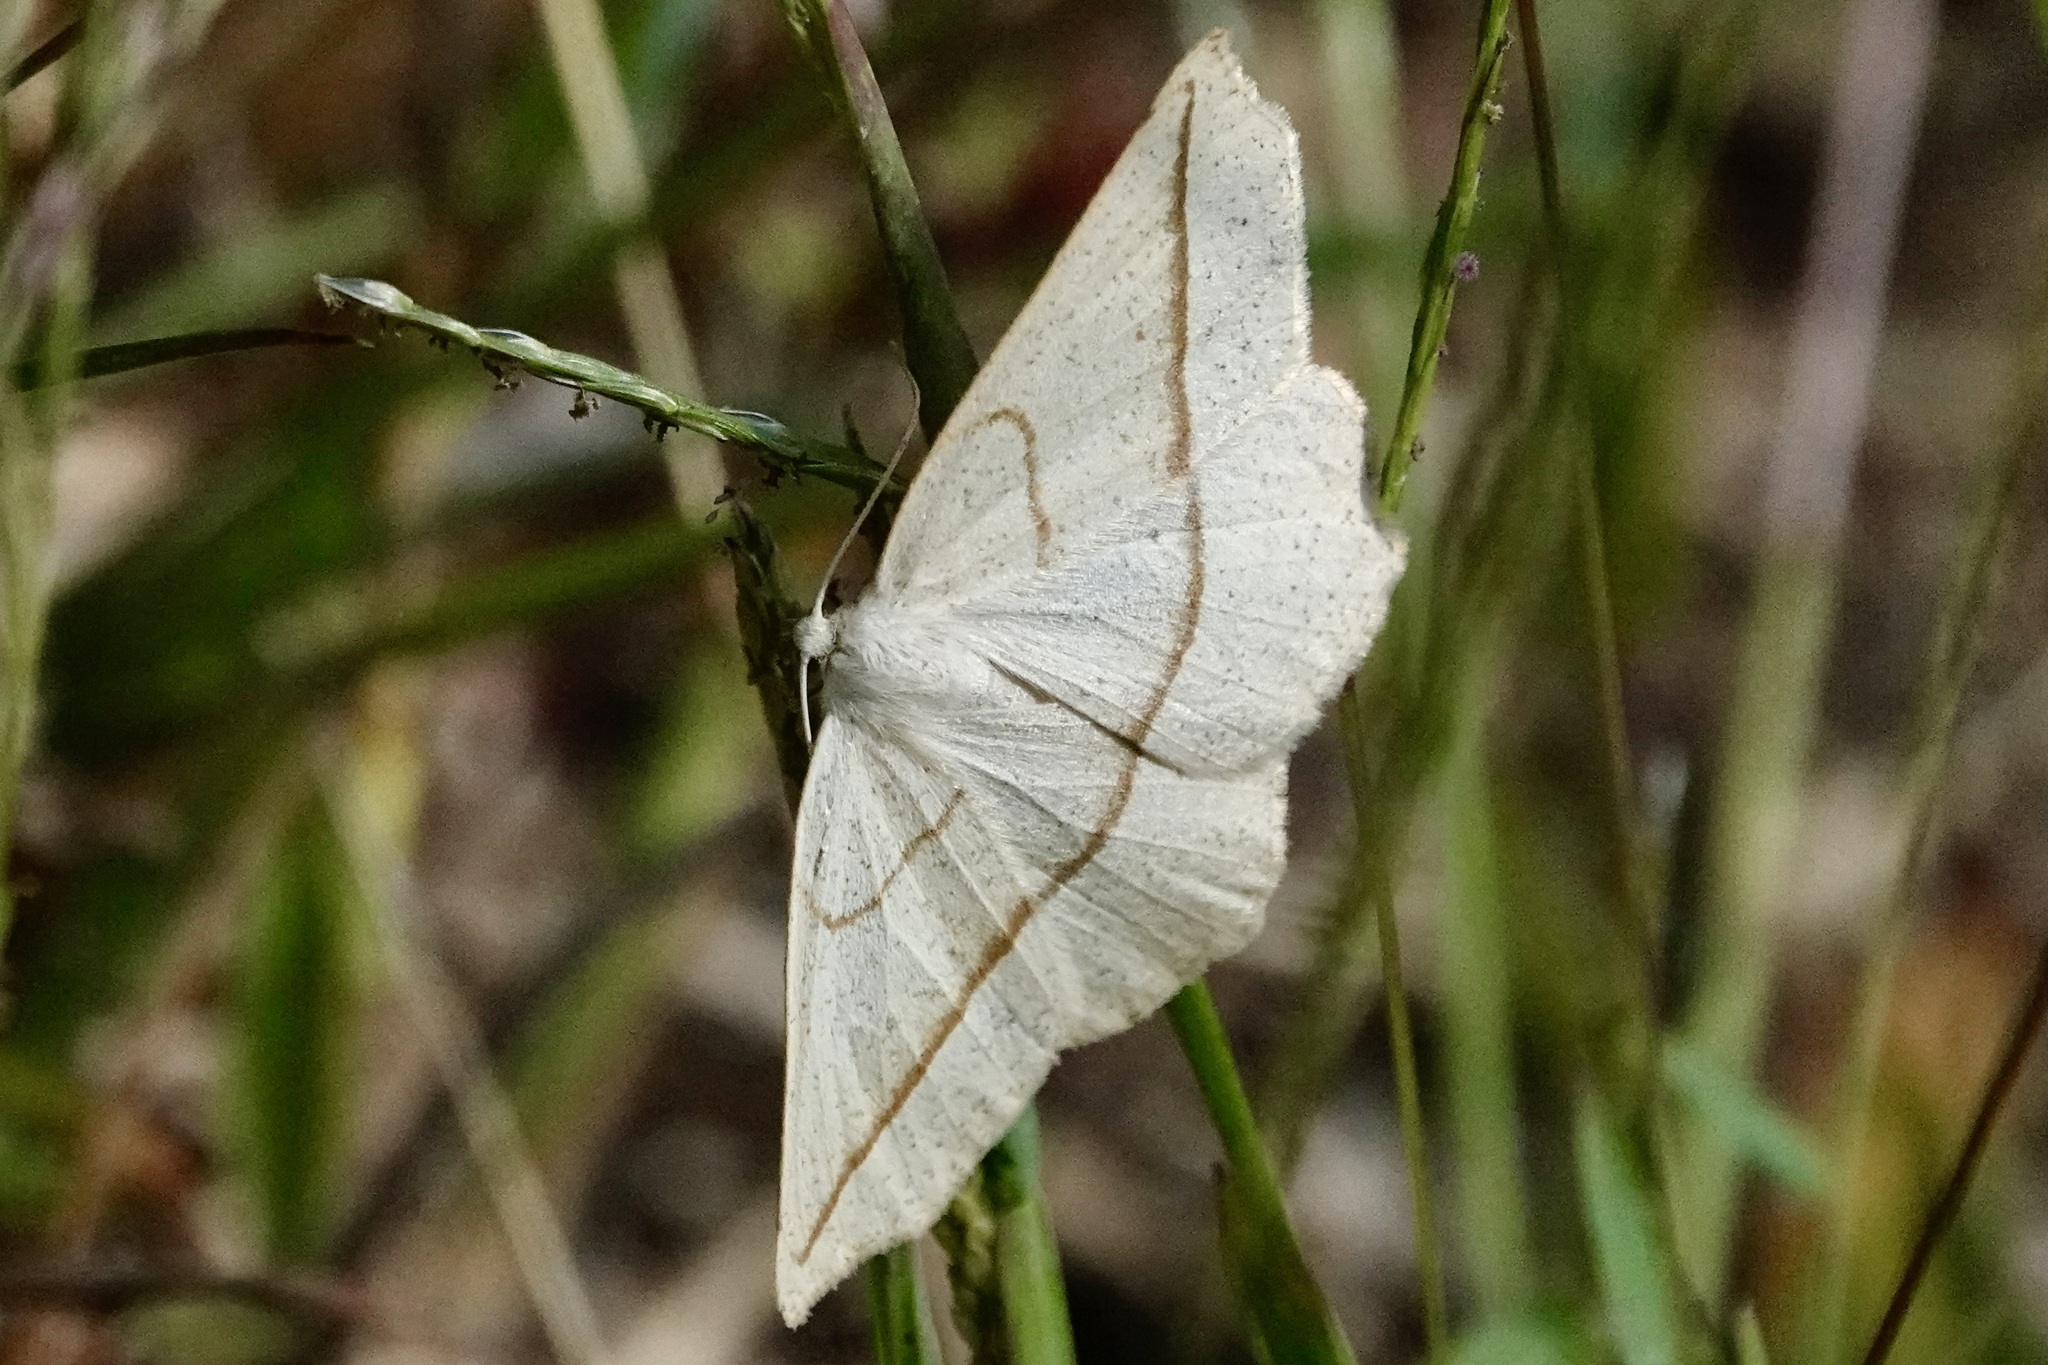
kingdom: Animalia
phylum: Arthropoda
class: Insecta
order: Lepidoptera
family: Geometridae
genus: Eusarca
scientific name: Eusarca confusaria
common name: Confused eusarca
